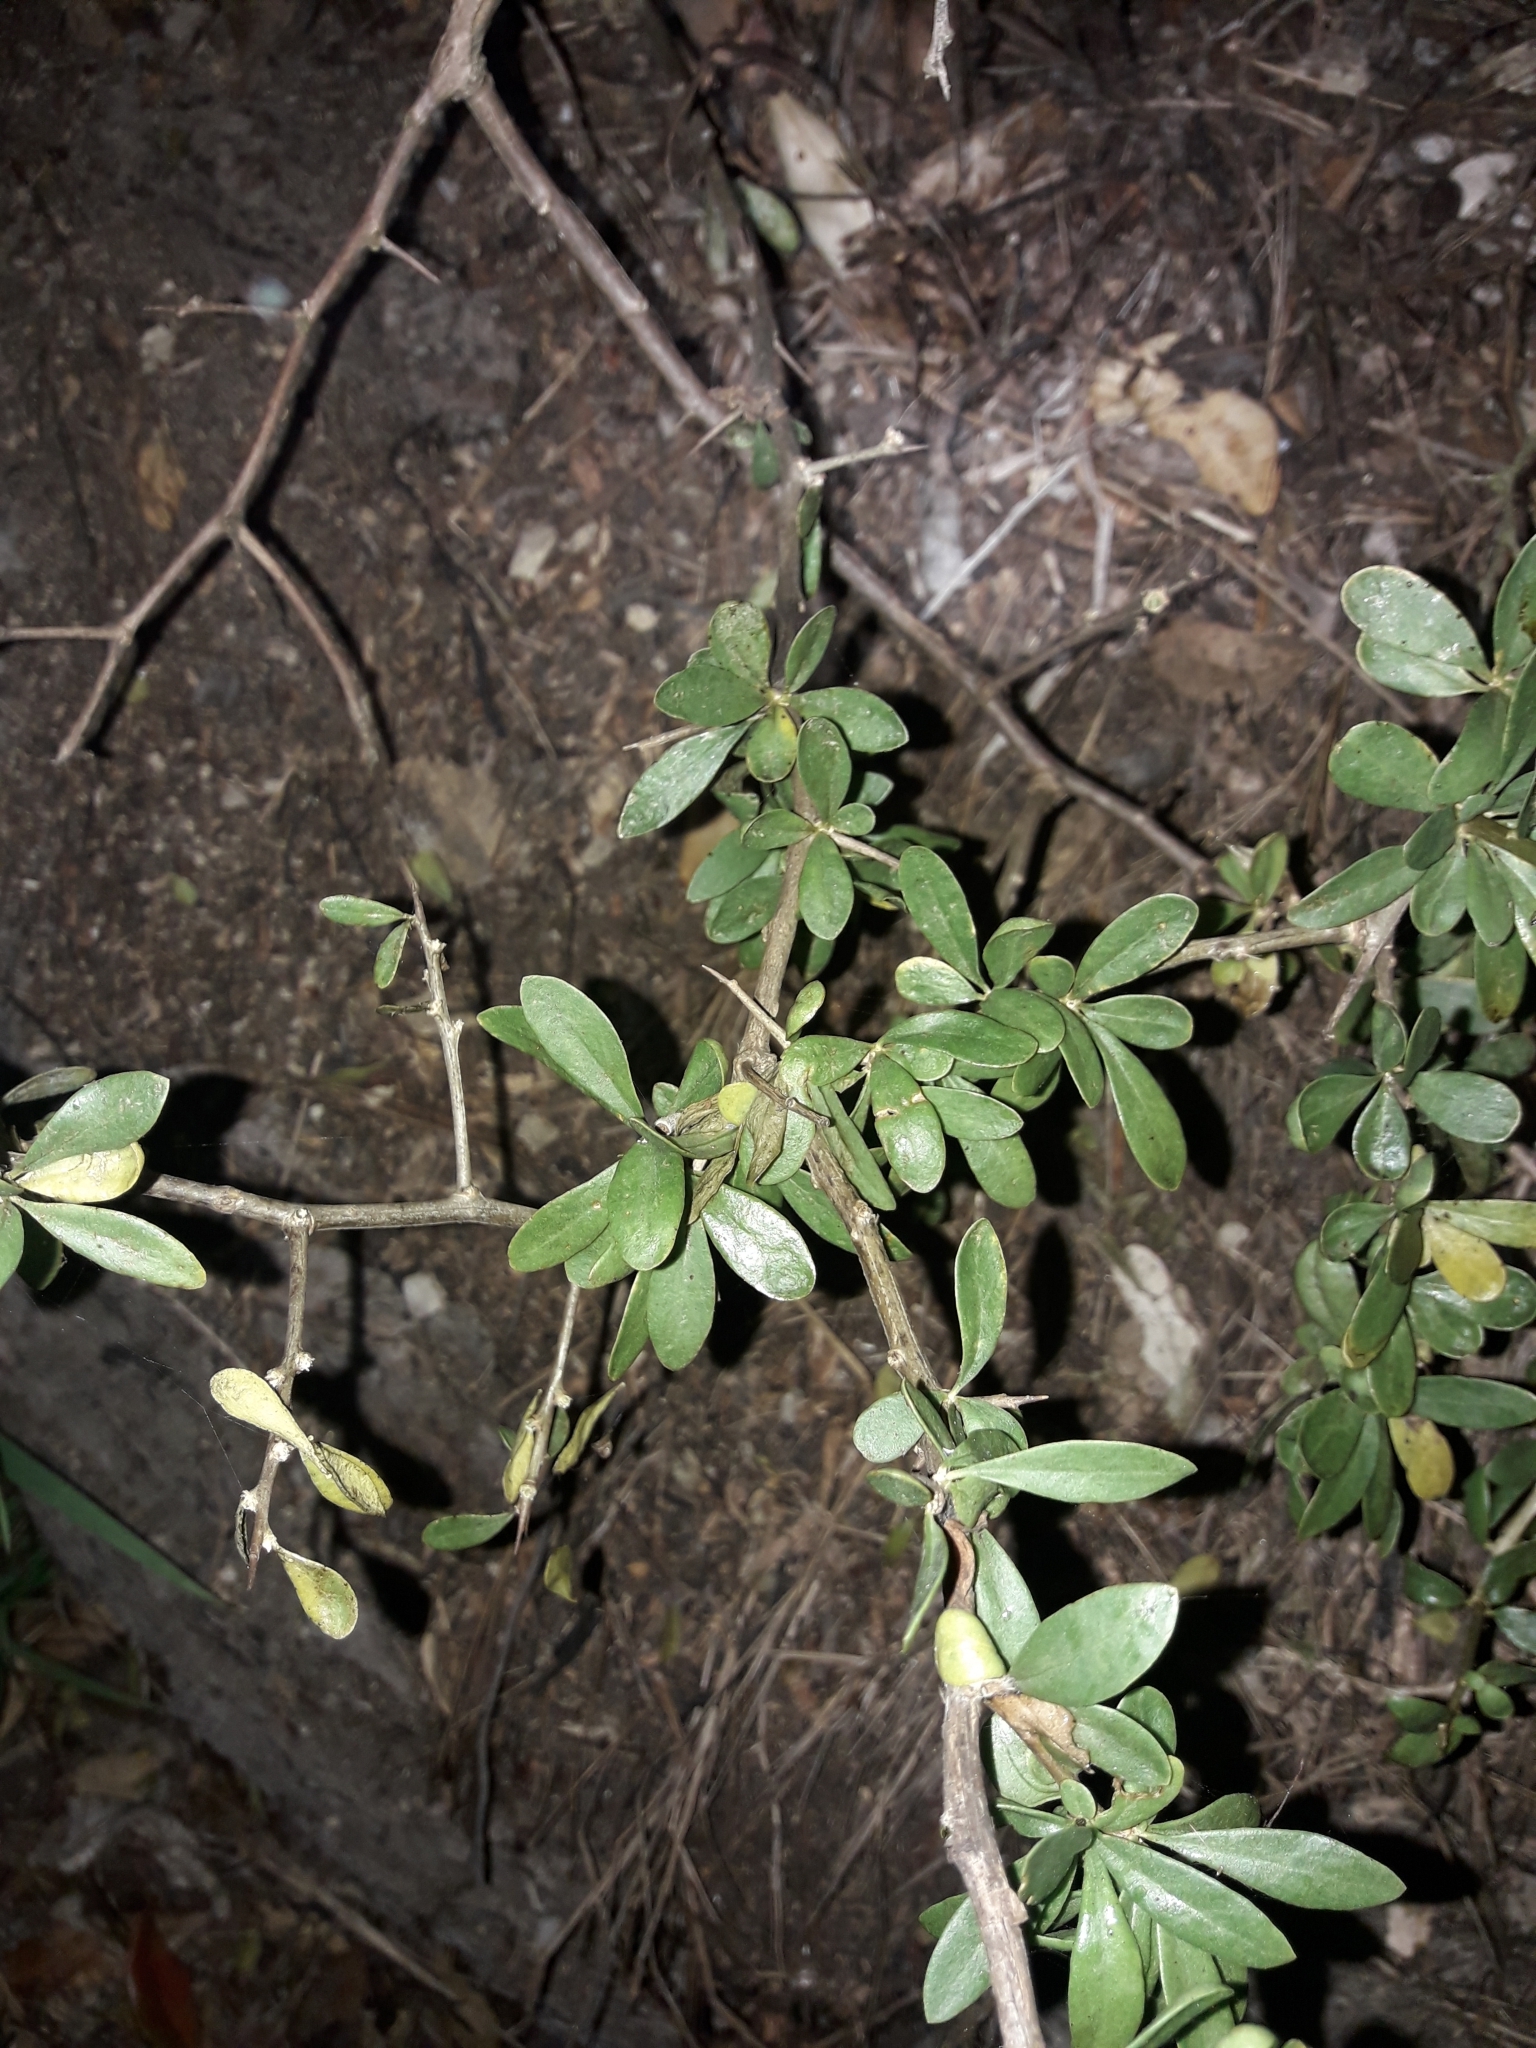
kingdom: Plantae
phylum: Tracheophyta
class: Magnoliopsida
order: Solanales
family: Solanaceae
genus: Lycium
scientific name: Lycium ferocissimum
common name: African boxthorn
